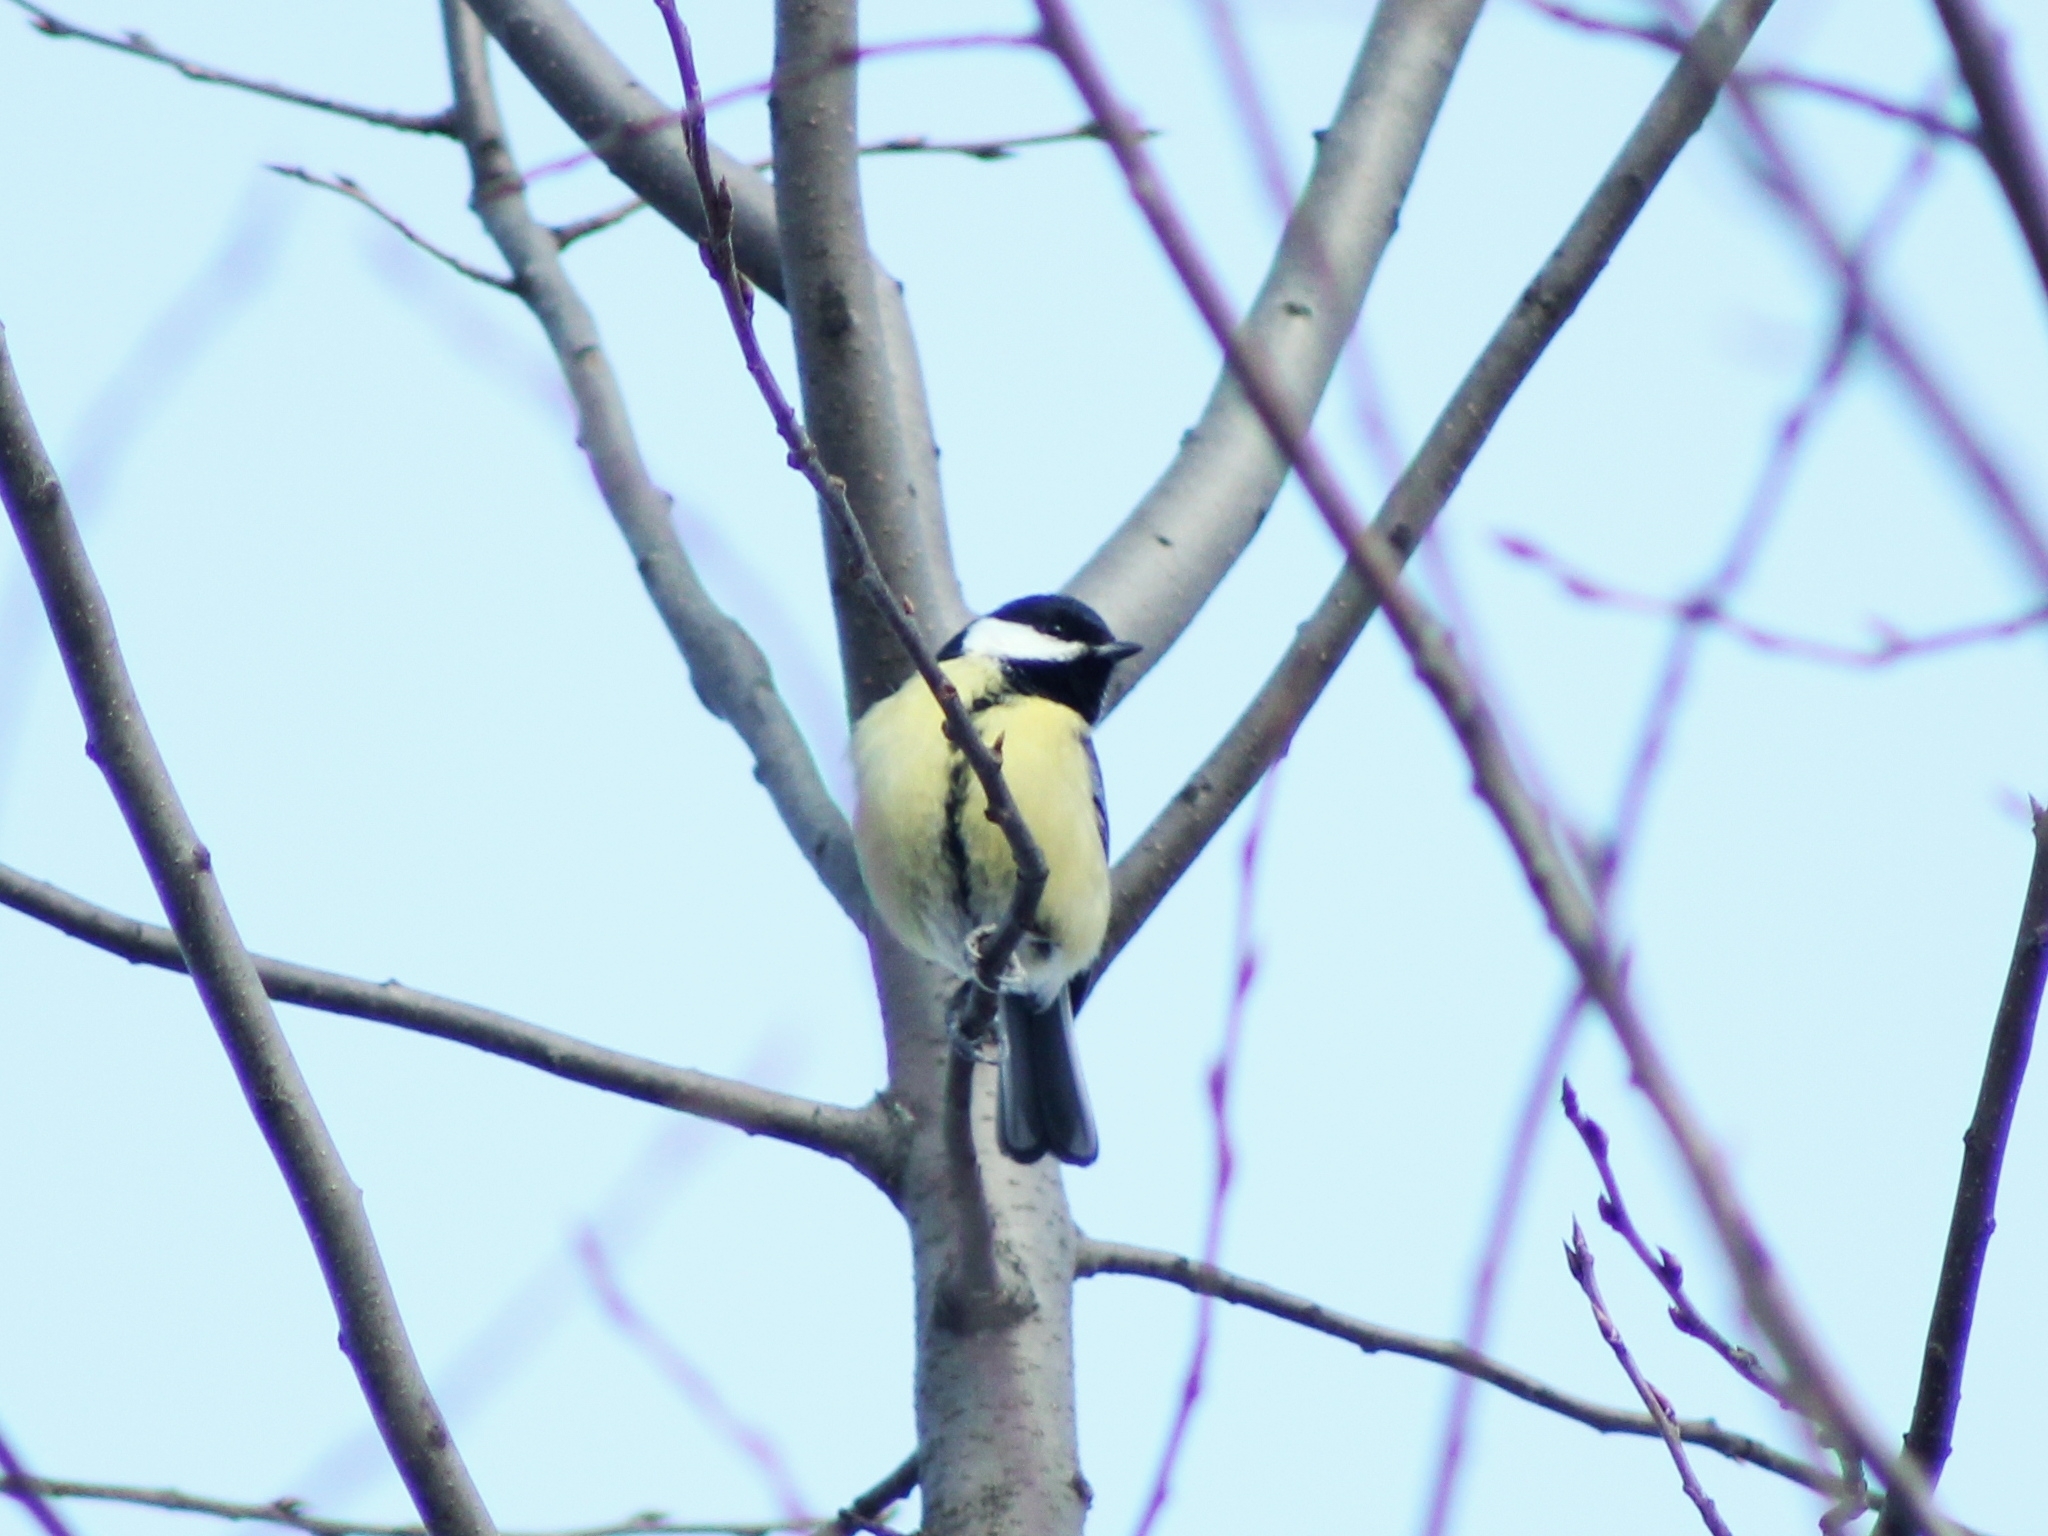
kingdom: Animalia
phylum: Chordata
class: Aves
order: Passeriformes
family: Paridae
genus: Parus
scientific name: Parus major
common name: Great tit
